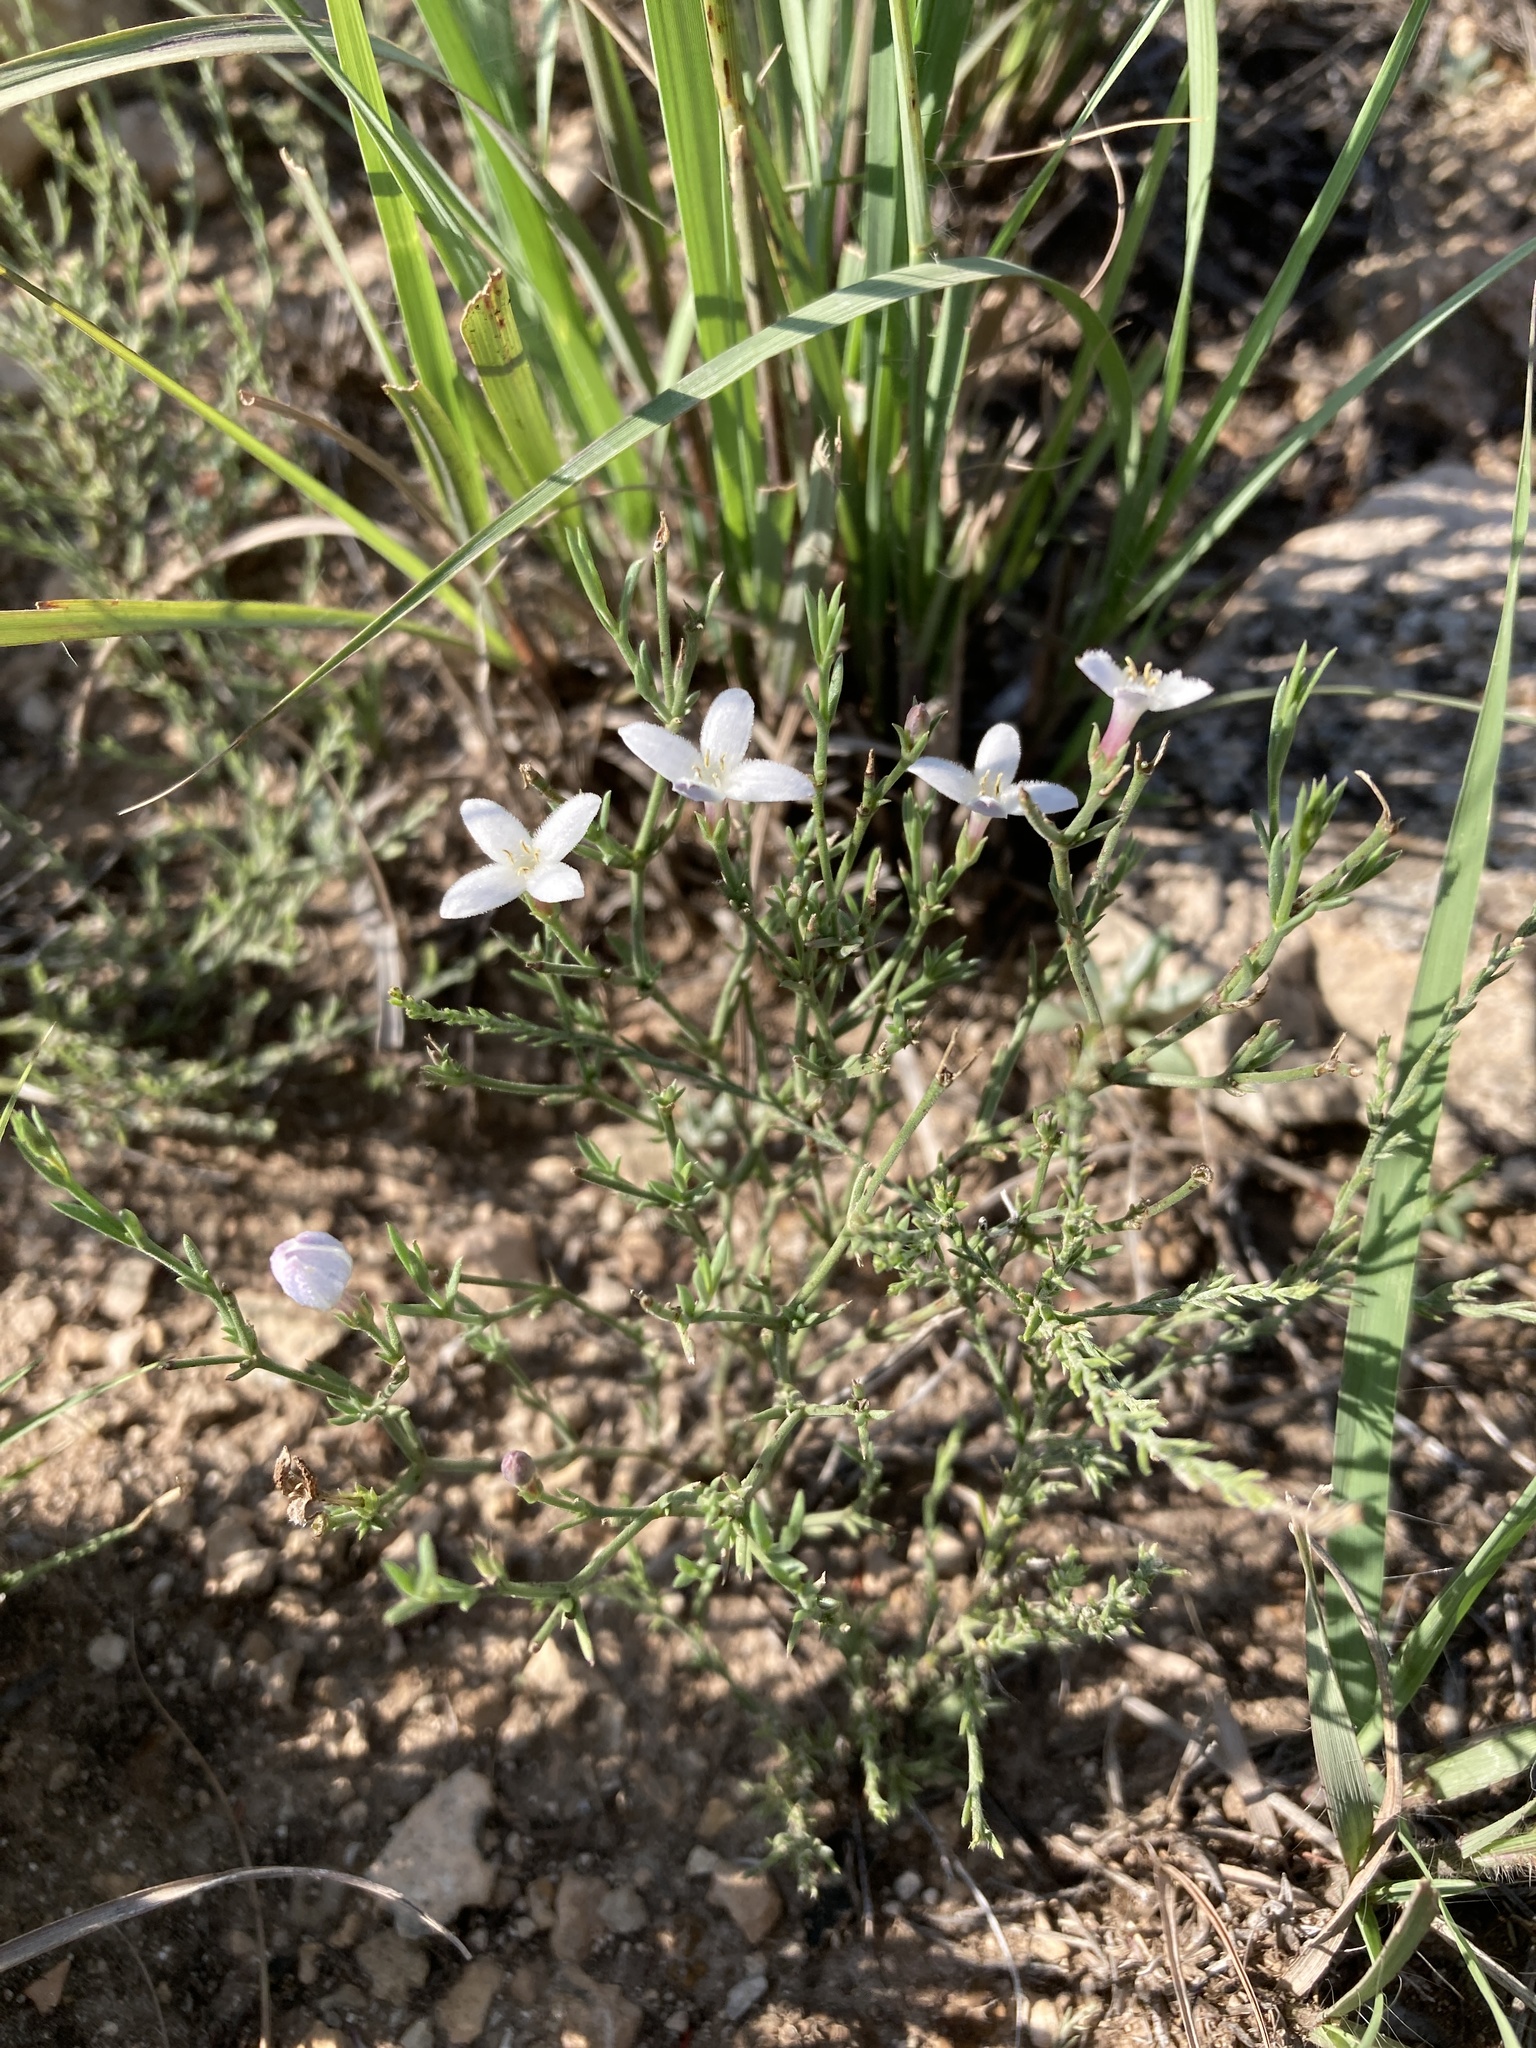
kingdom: Plantae
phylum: Tracheophyta
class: Magnoliopsida
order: Gentianales
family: Rubiaceae
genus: Houstonia
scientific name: Houstonia acerosa
